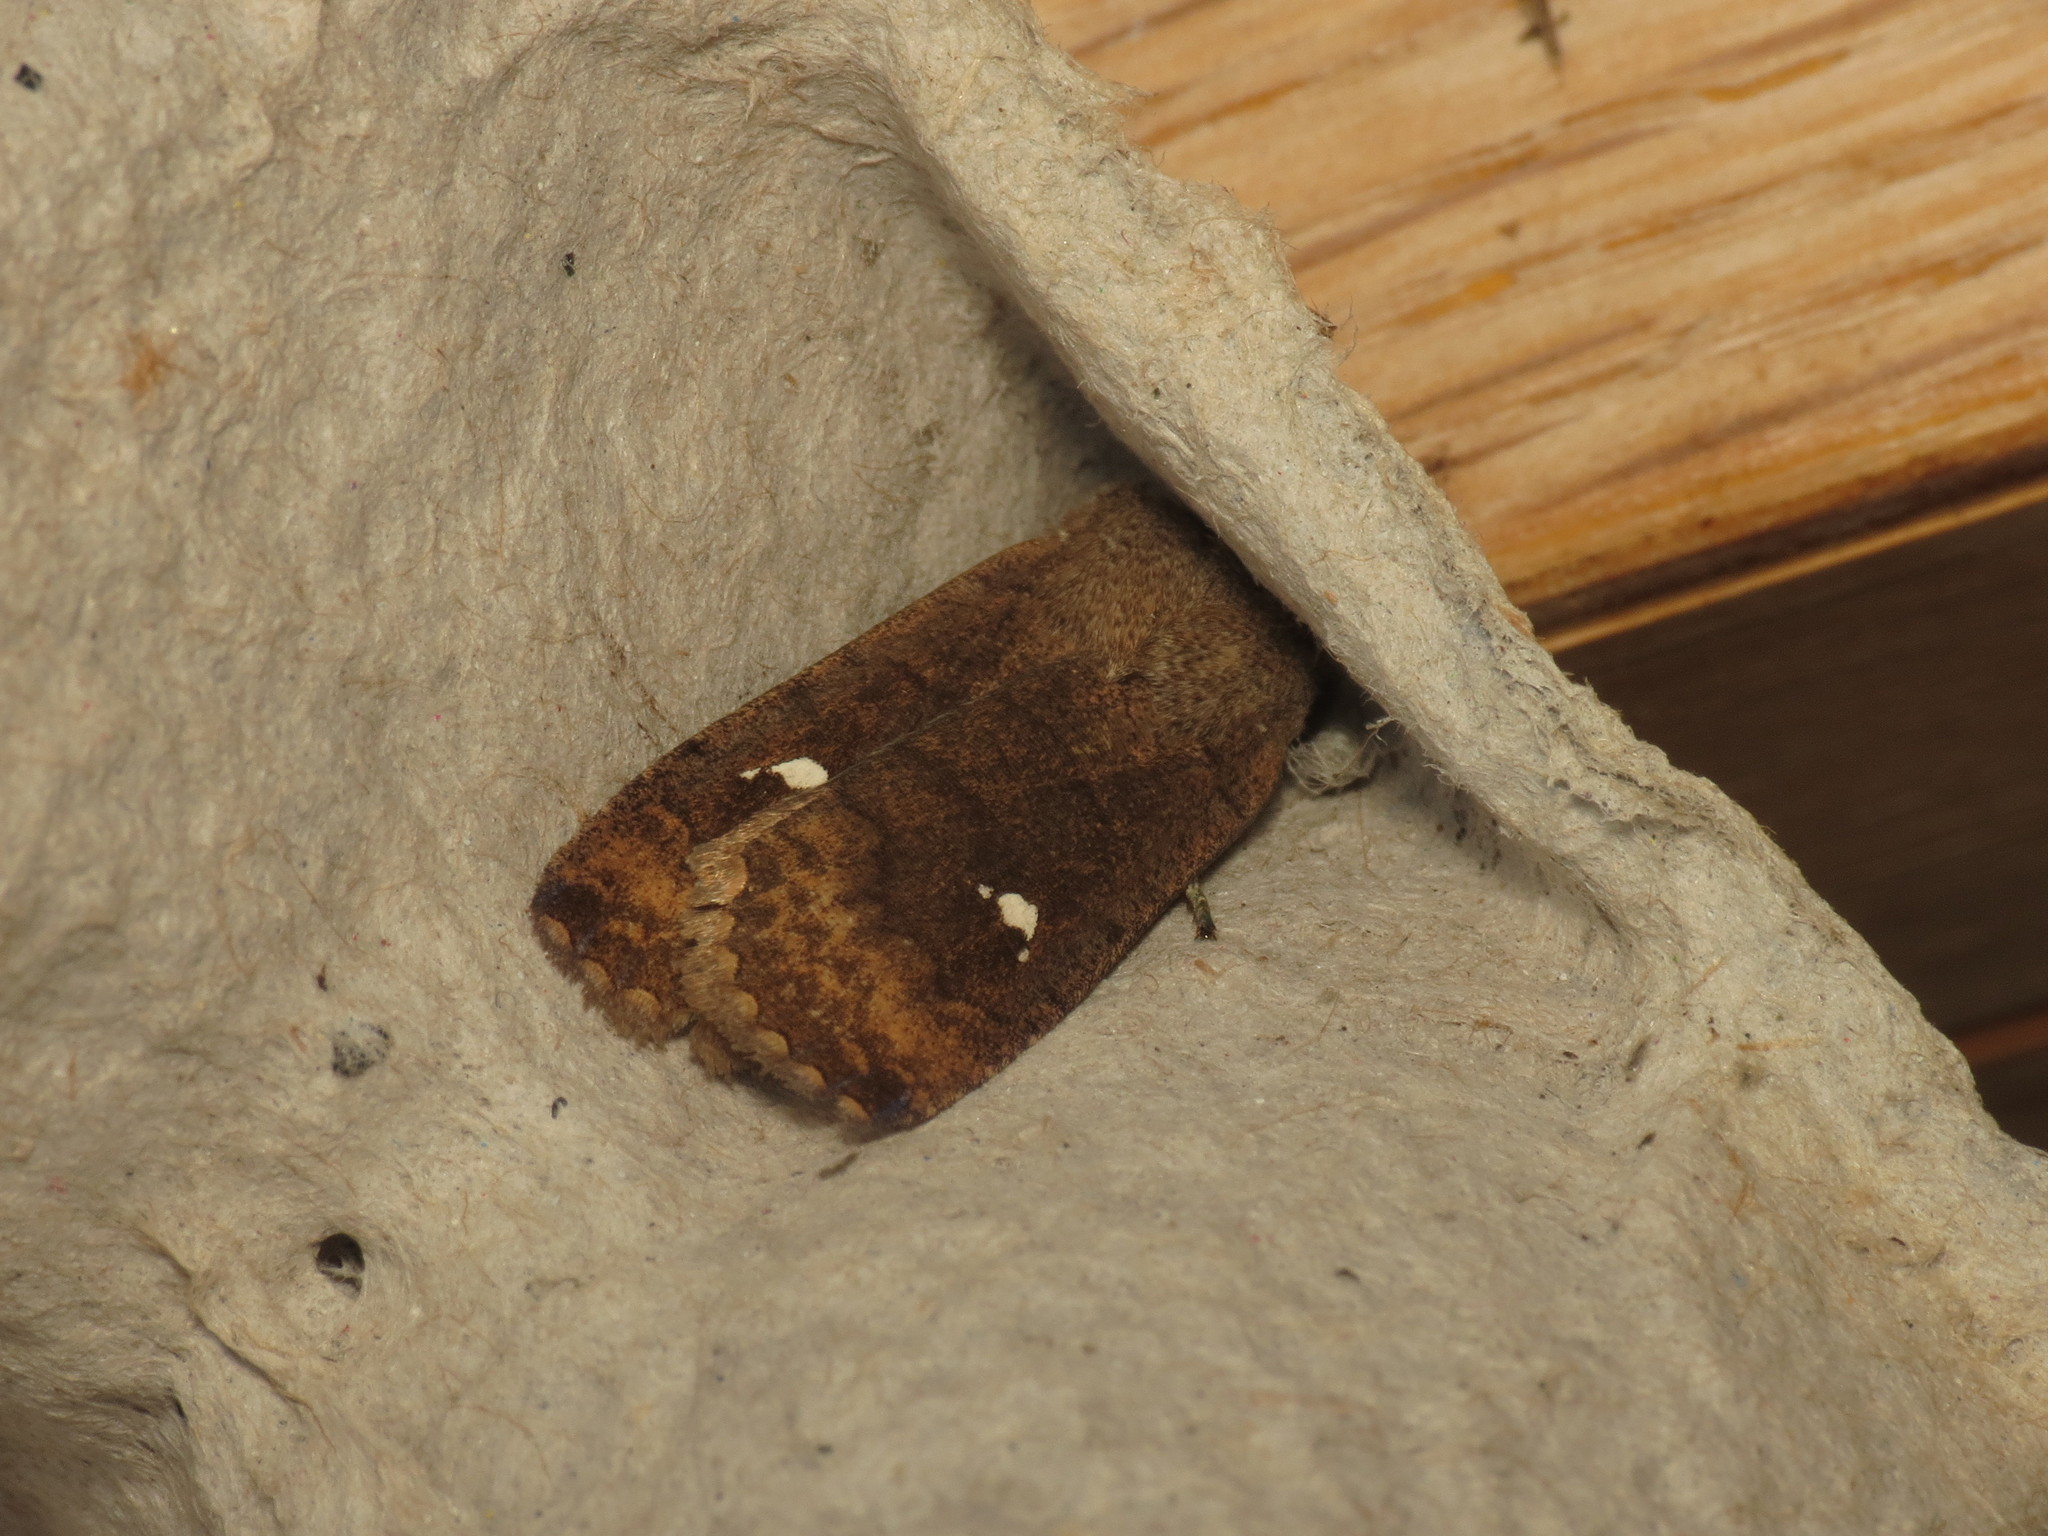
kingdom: Animalia
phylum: Arthropoda
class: Insecta
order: Lepidoptera
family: Noctuidae
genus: Eupsilia
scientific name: Eupsilia transversa
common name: Satellite
